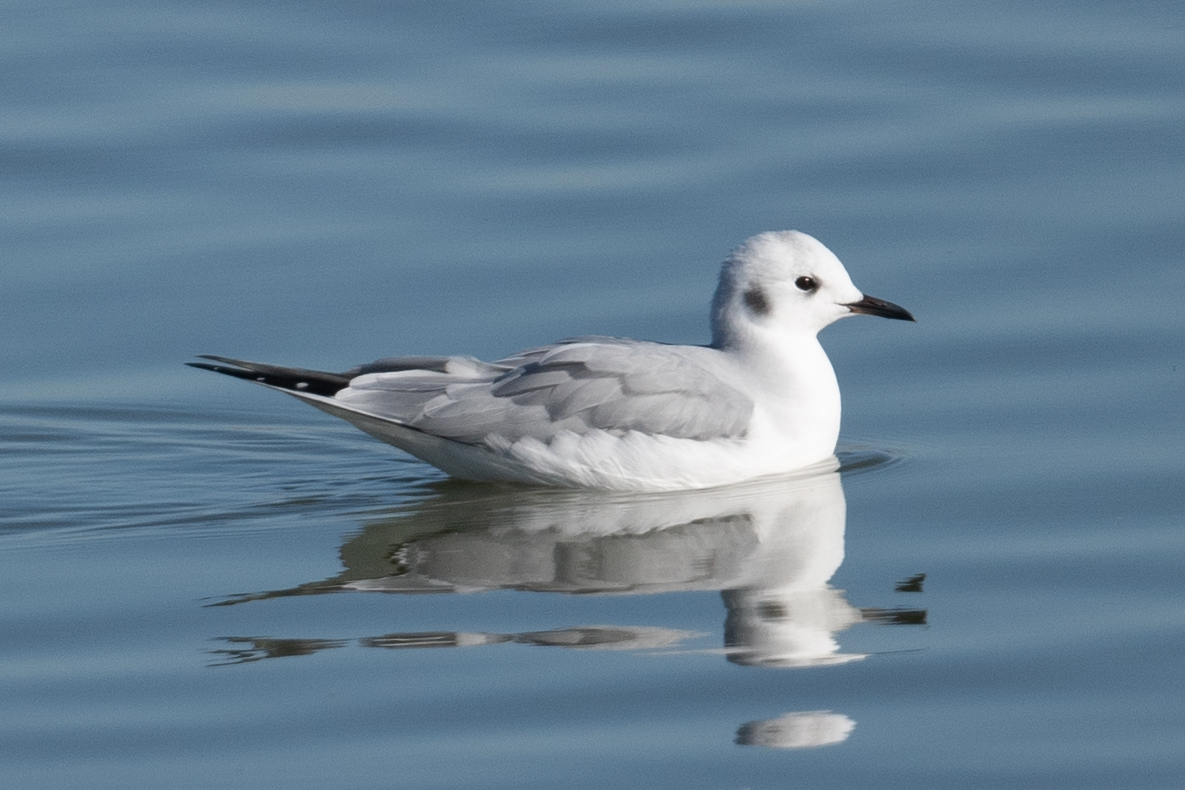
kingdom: Animalia
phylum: Chordata
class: Aves
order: Charadriiformes
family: Laridae
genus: Chroicocephalus
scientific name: Chroicocephalus philadelphia
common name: Bonaparte's gull
